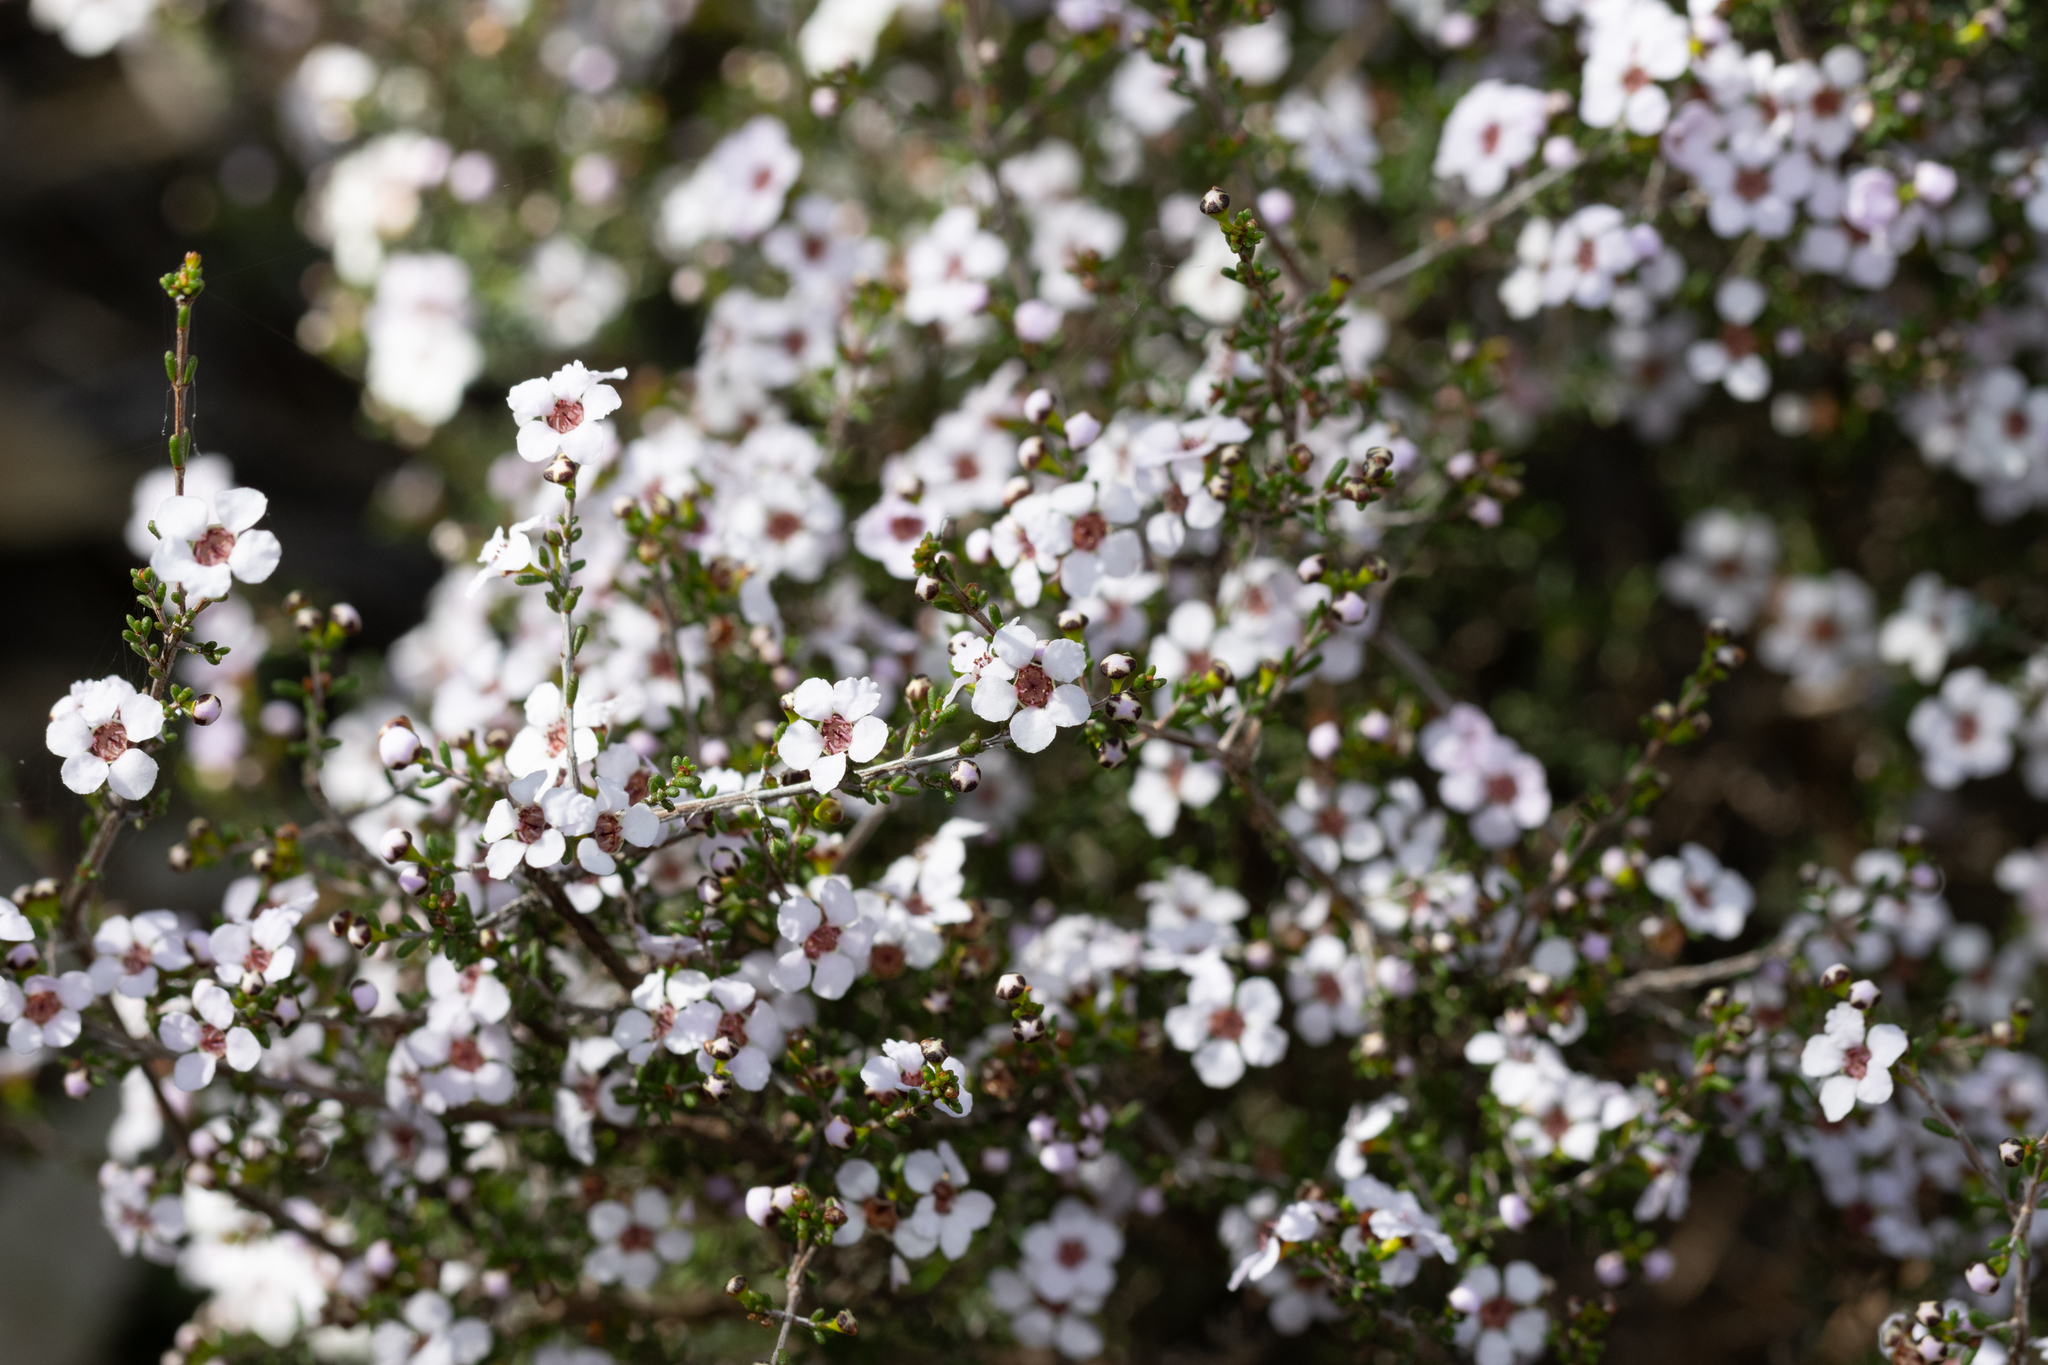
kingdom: Plantae
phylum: Tracheophyta
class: Magnoliopsida
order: Myrtales
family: Myrtaceae
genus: Rinzia
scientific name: Rinzia orientalis
